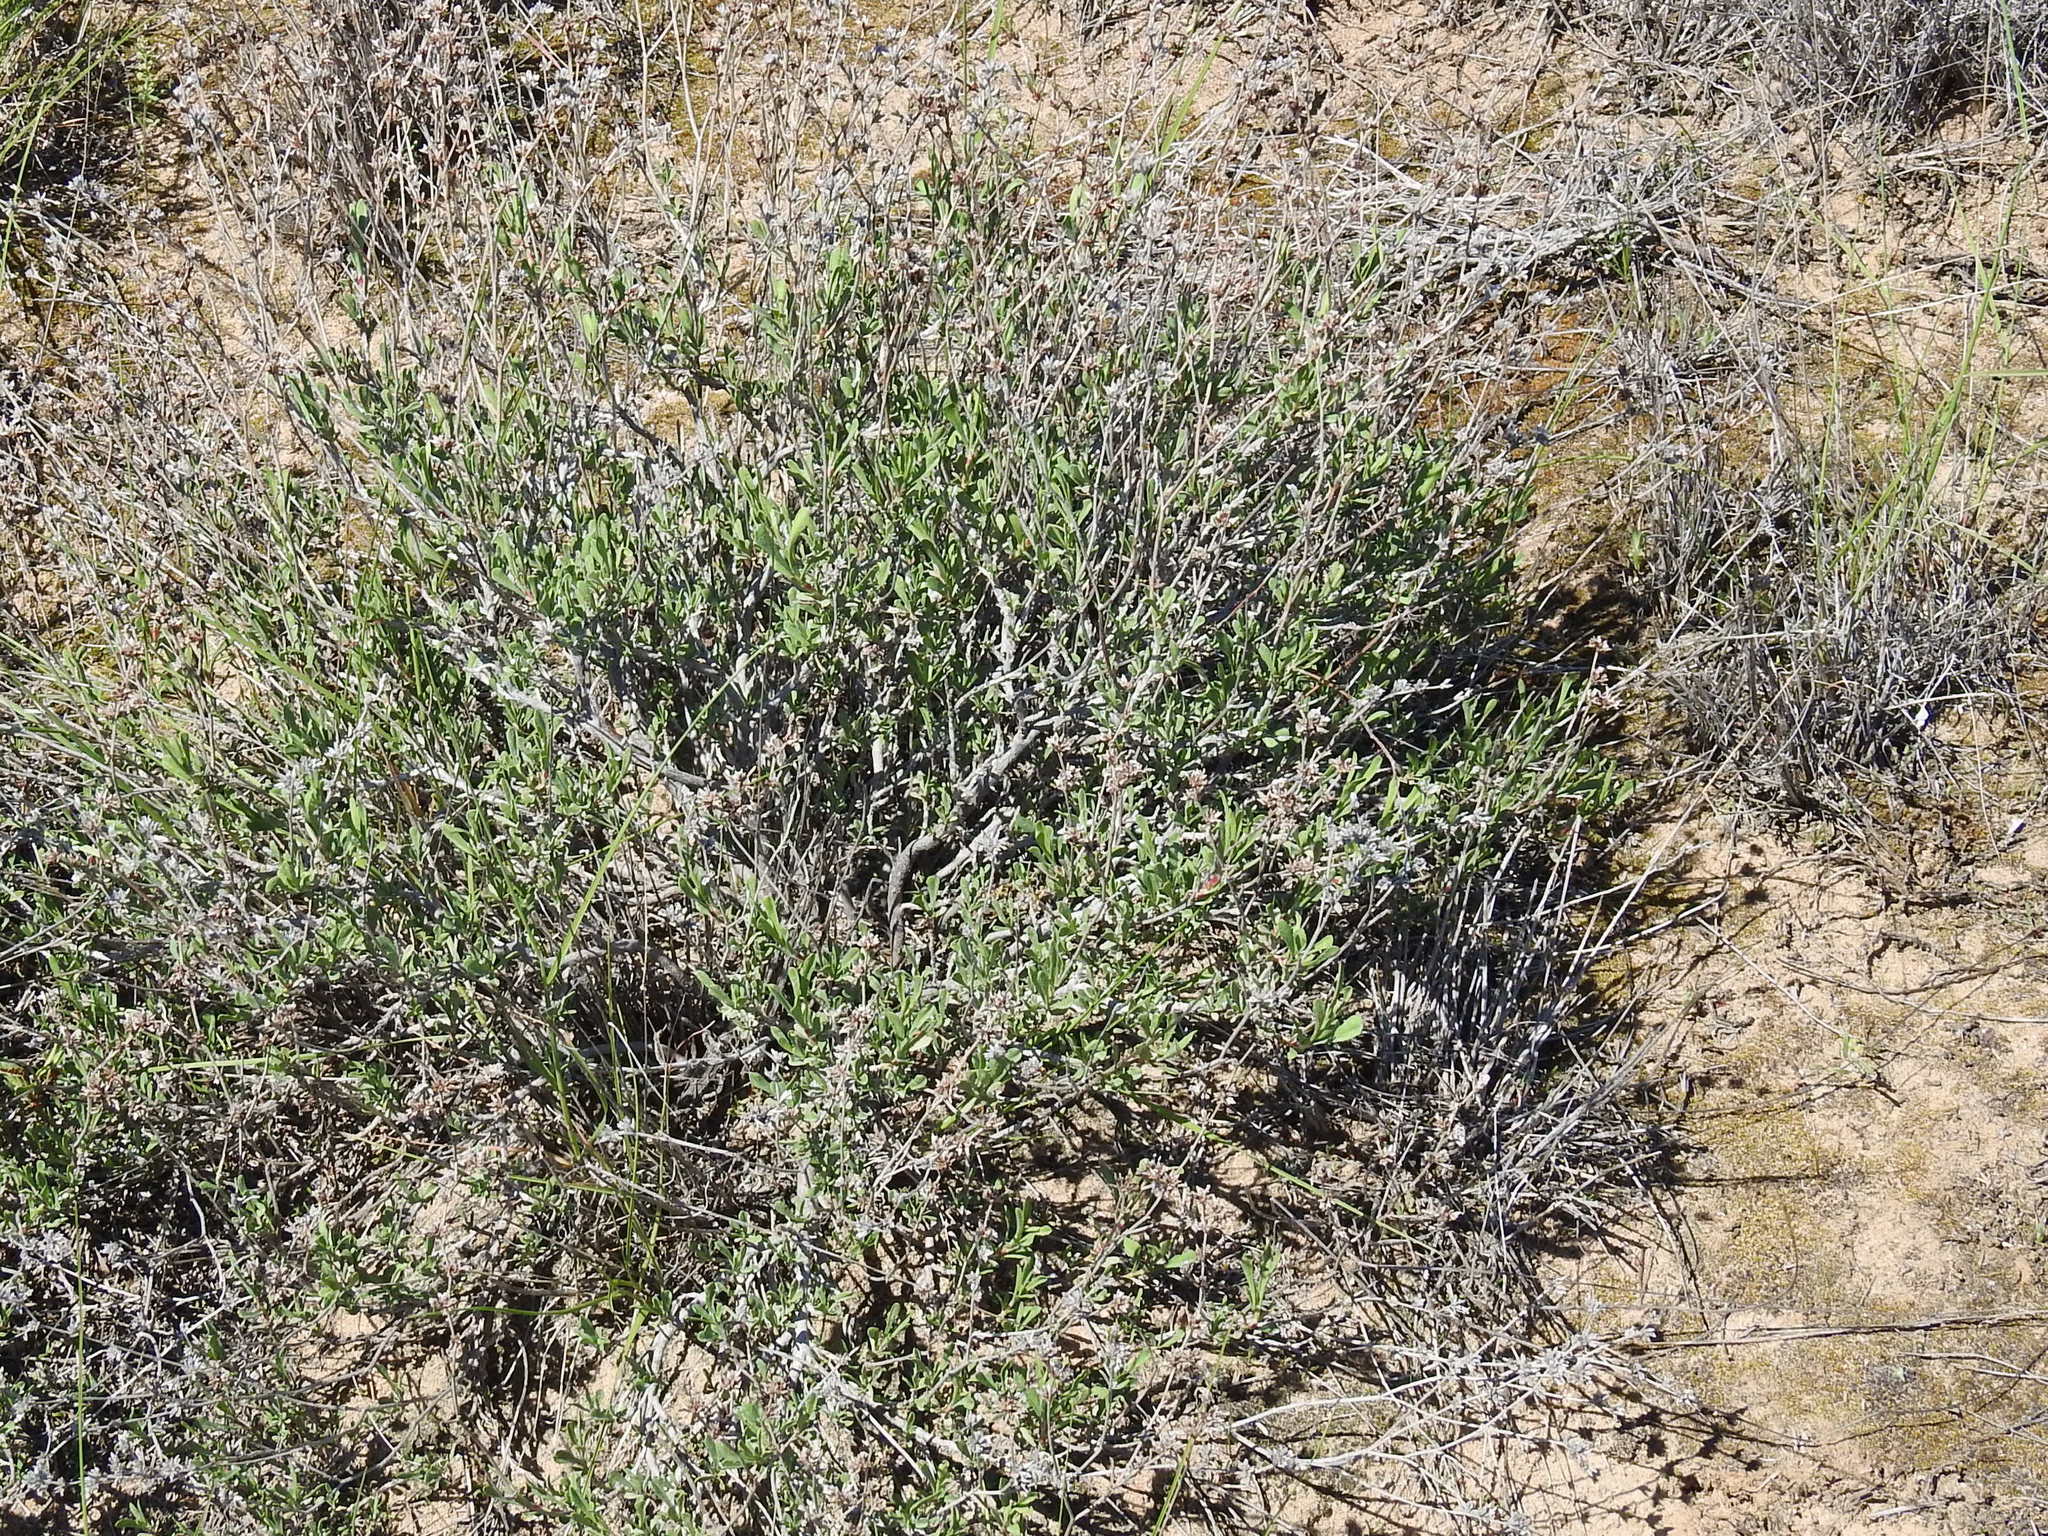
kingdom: Plantae
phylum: Tracheophyta
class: Magnoliopsida
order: Caryophyllales
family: Plumbaginaceae
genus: Limonium
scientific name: Limonium suffruticosum
